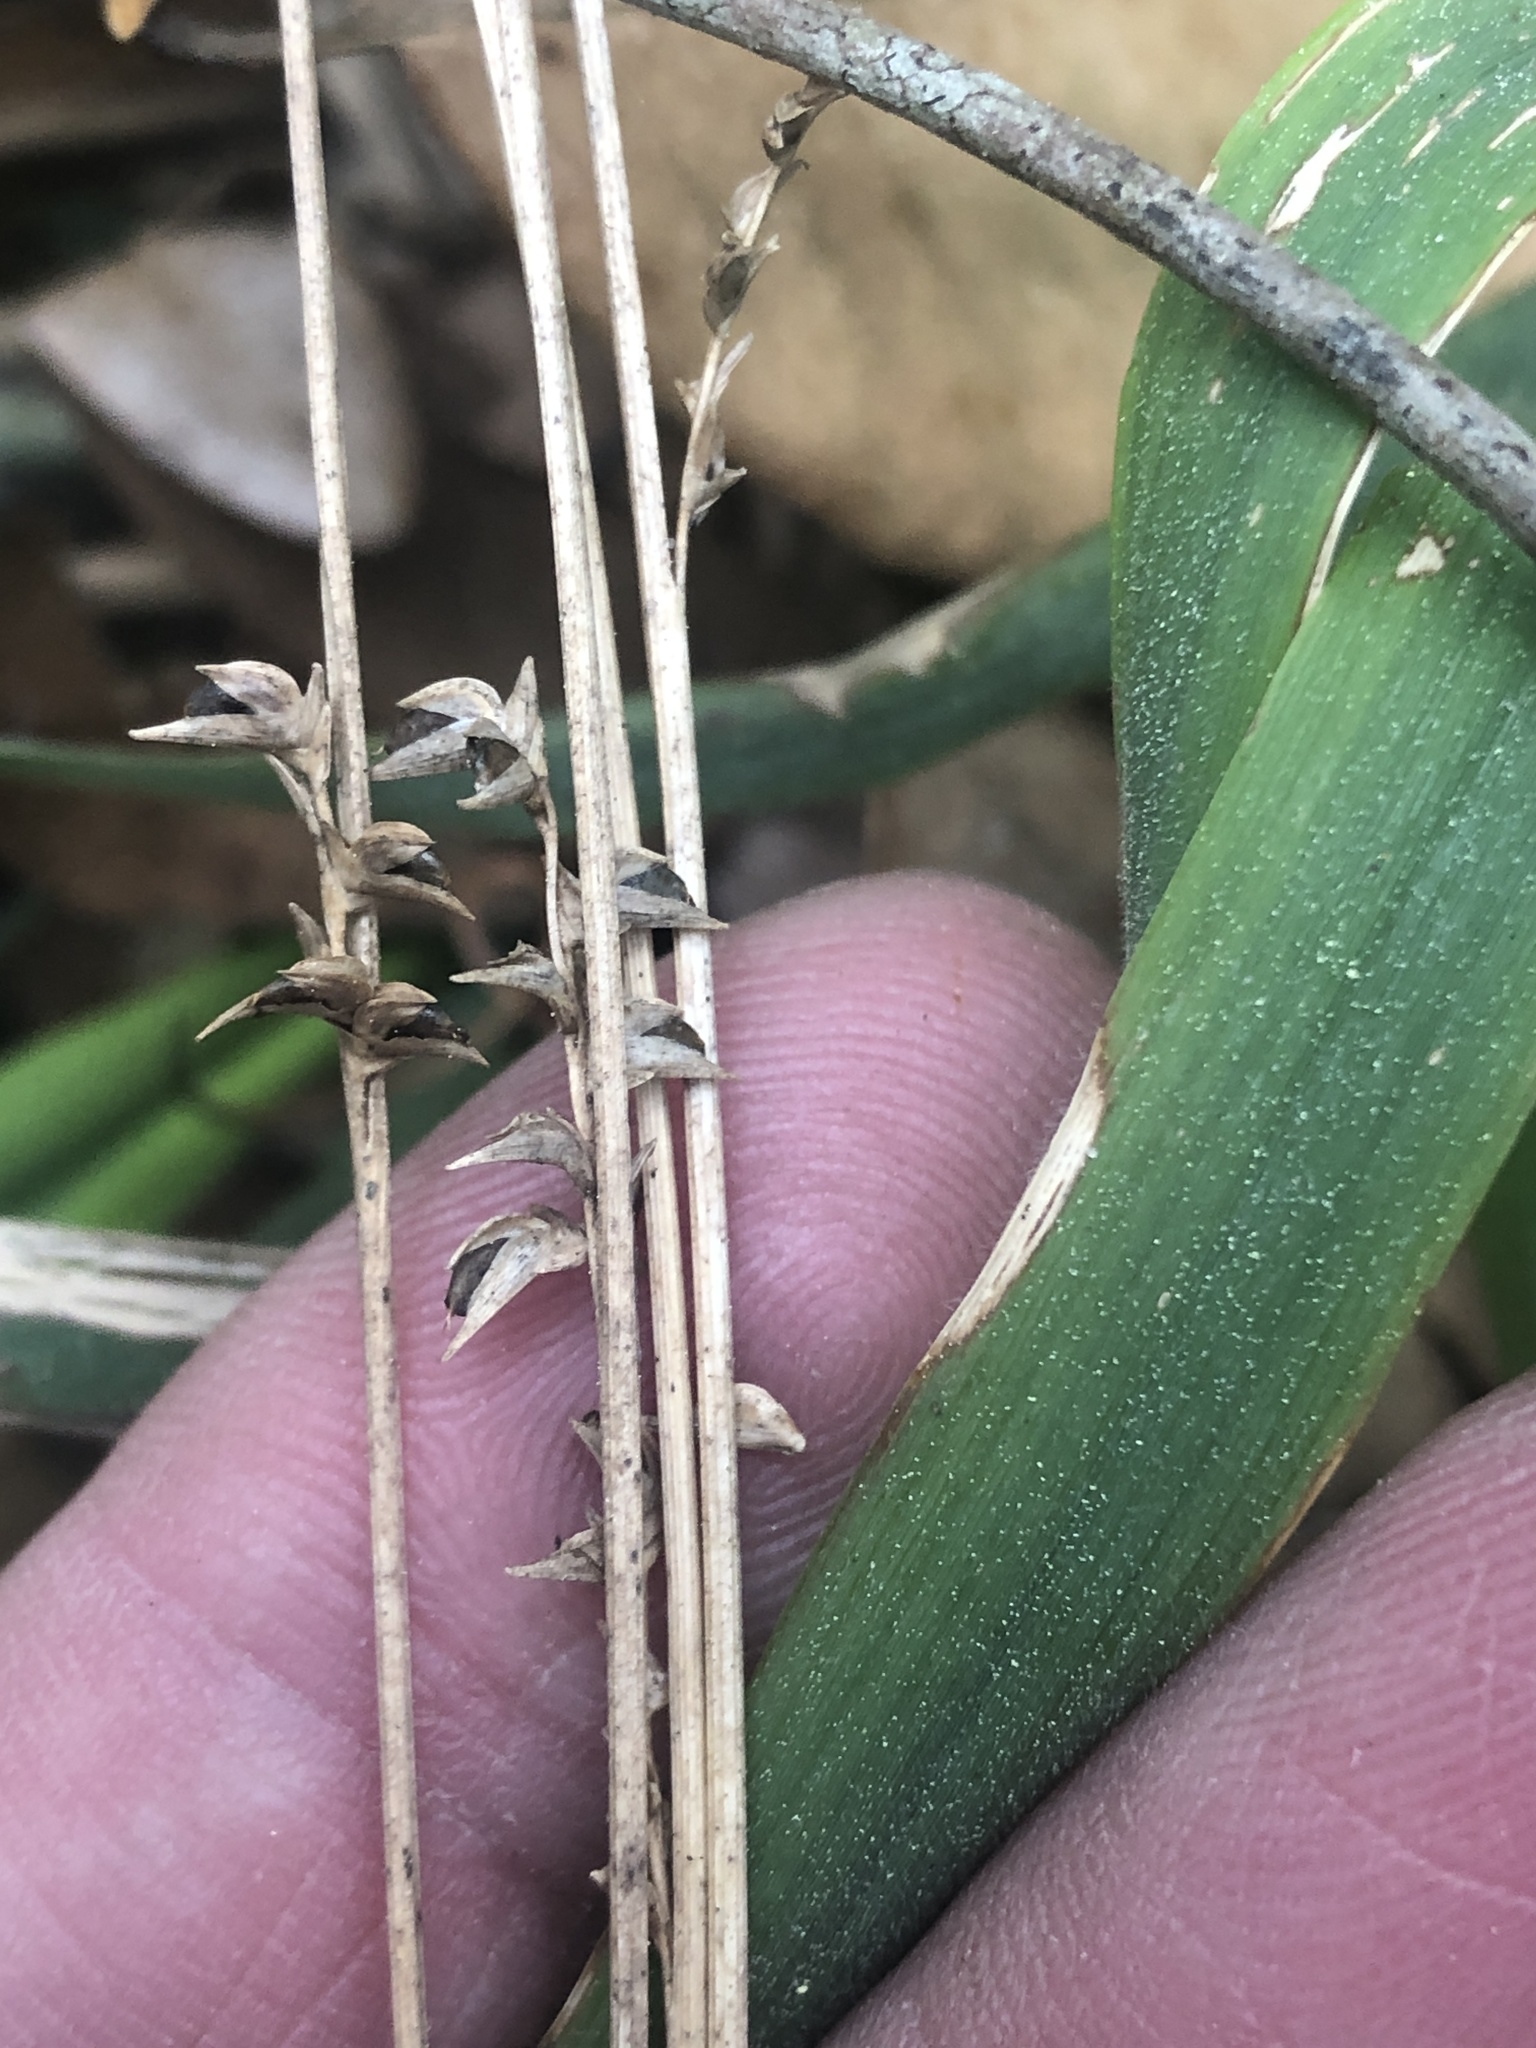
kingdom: Plantae
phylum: Tracheophyta
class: Liliopsida
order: Poales
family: Poaceae
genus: Chasmanthium
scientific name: Chasmanthium laxum
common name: Slender chasmanthium
